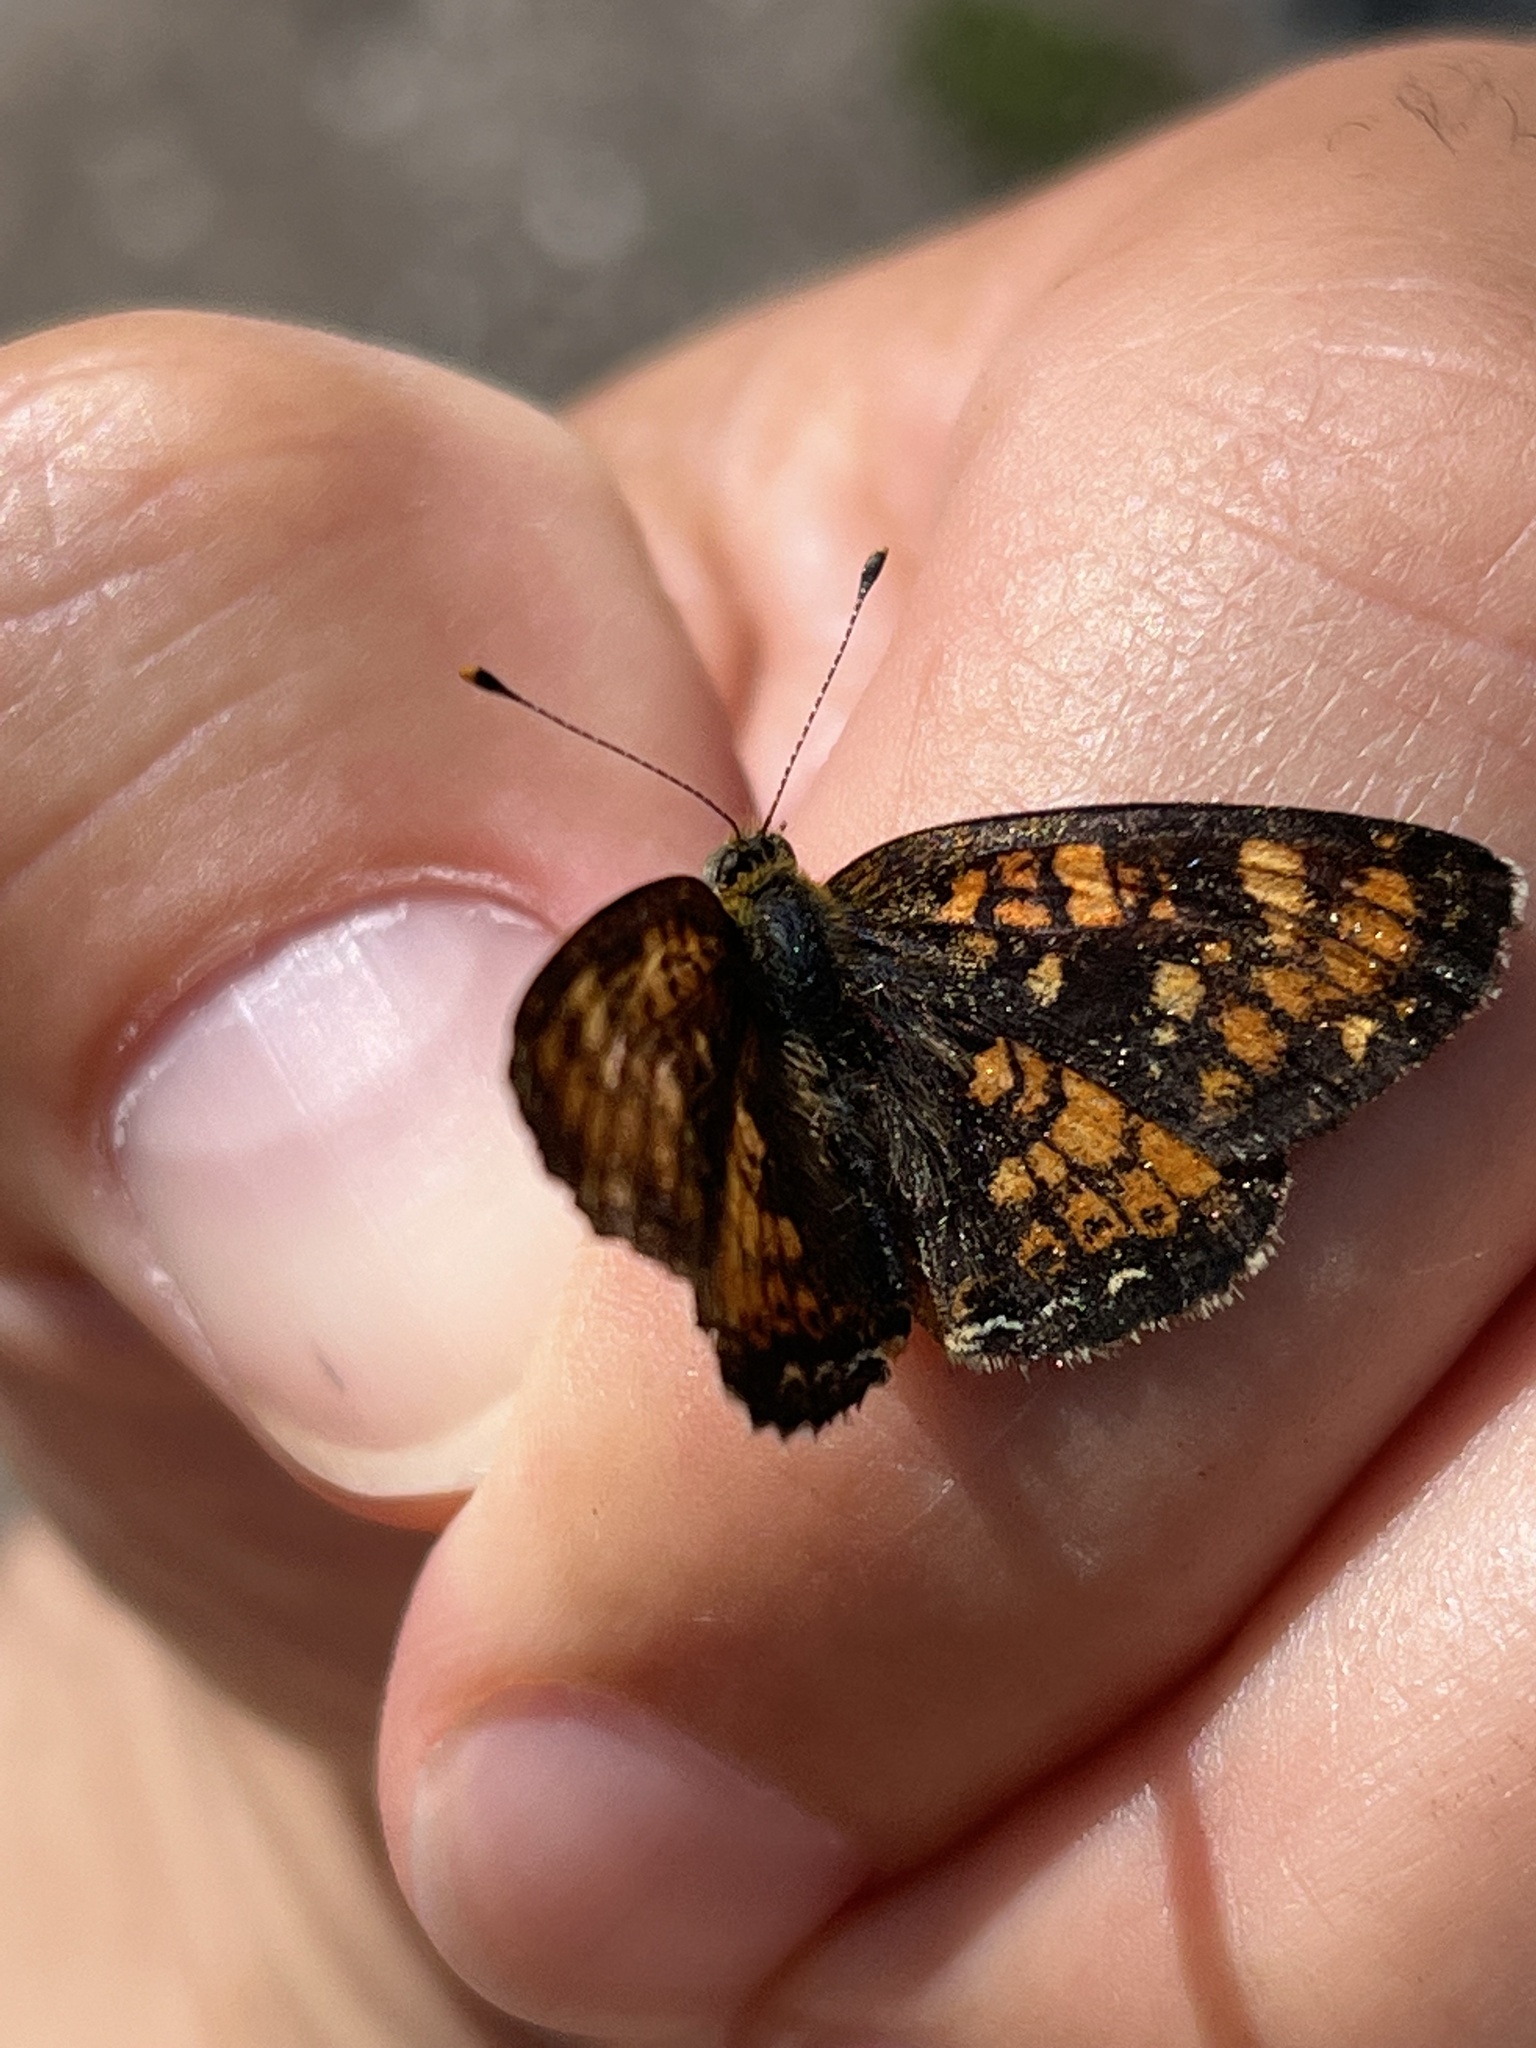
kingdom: Animalia
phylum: Arthropoda
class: Insecta
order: Lepidoptera
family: Nymphalidae
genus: Phyciodes
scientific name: Phyciodes tharos
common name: Pearl crescent
